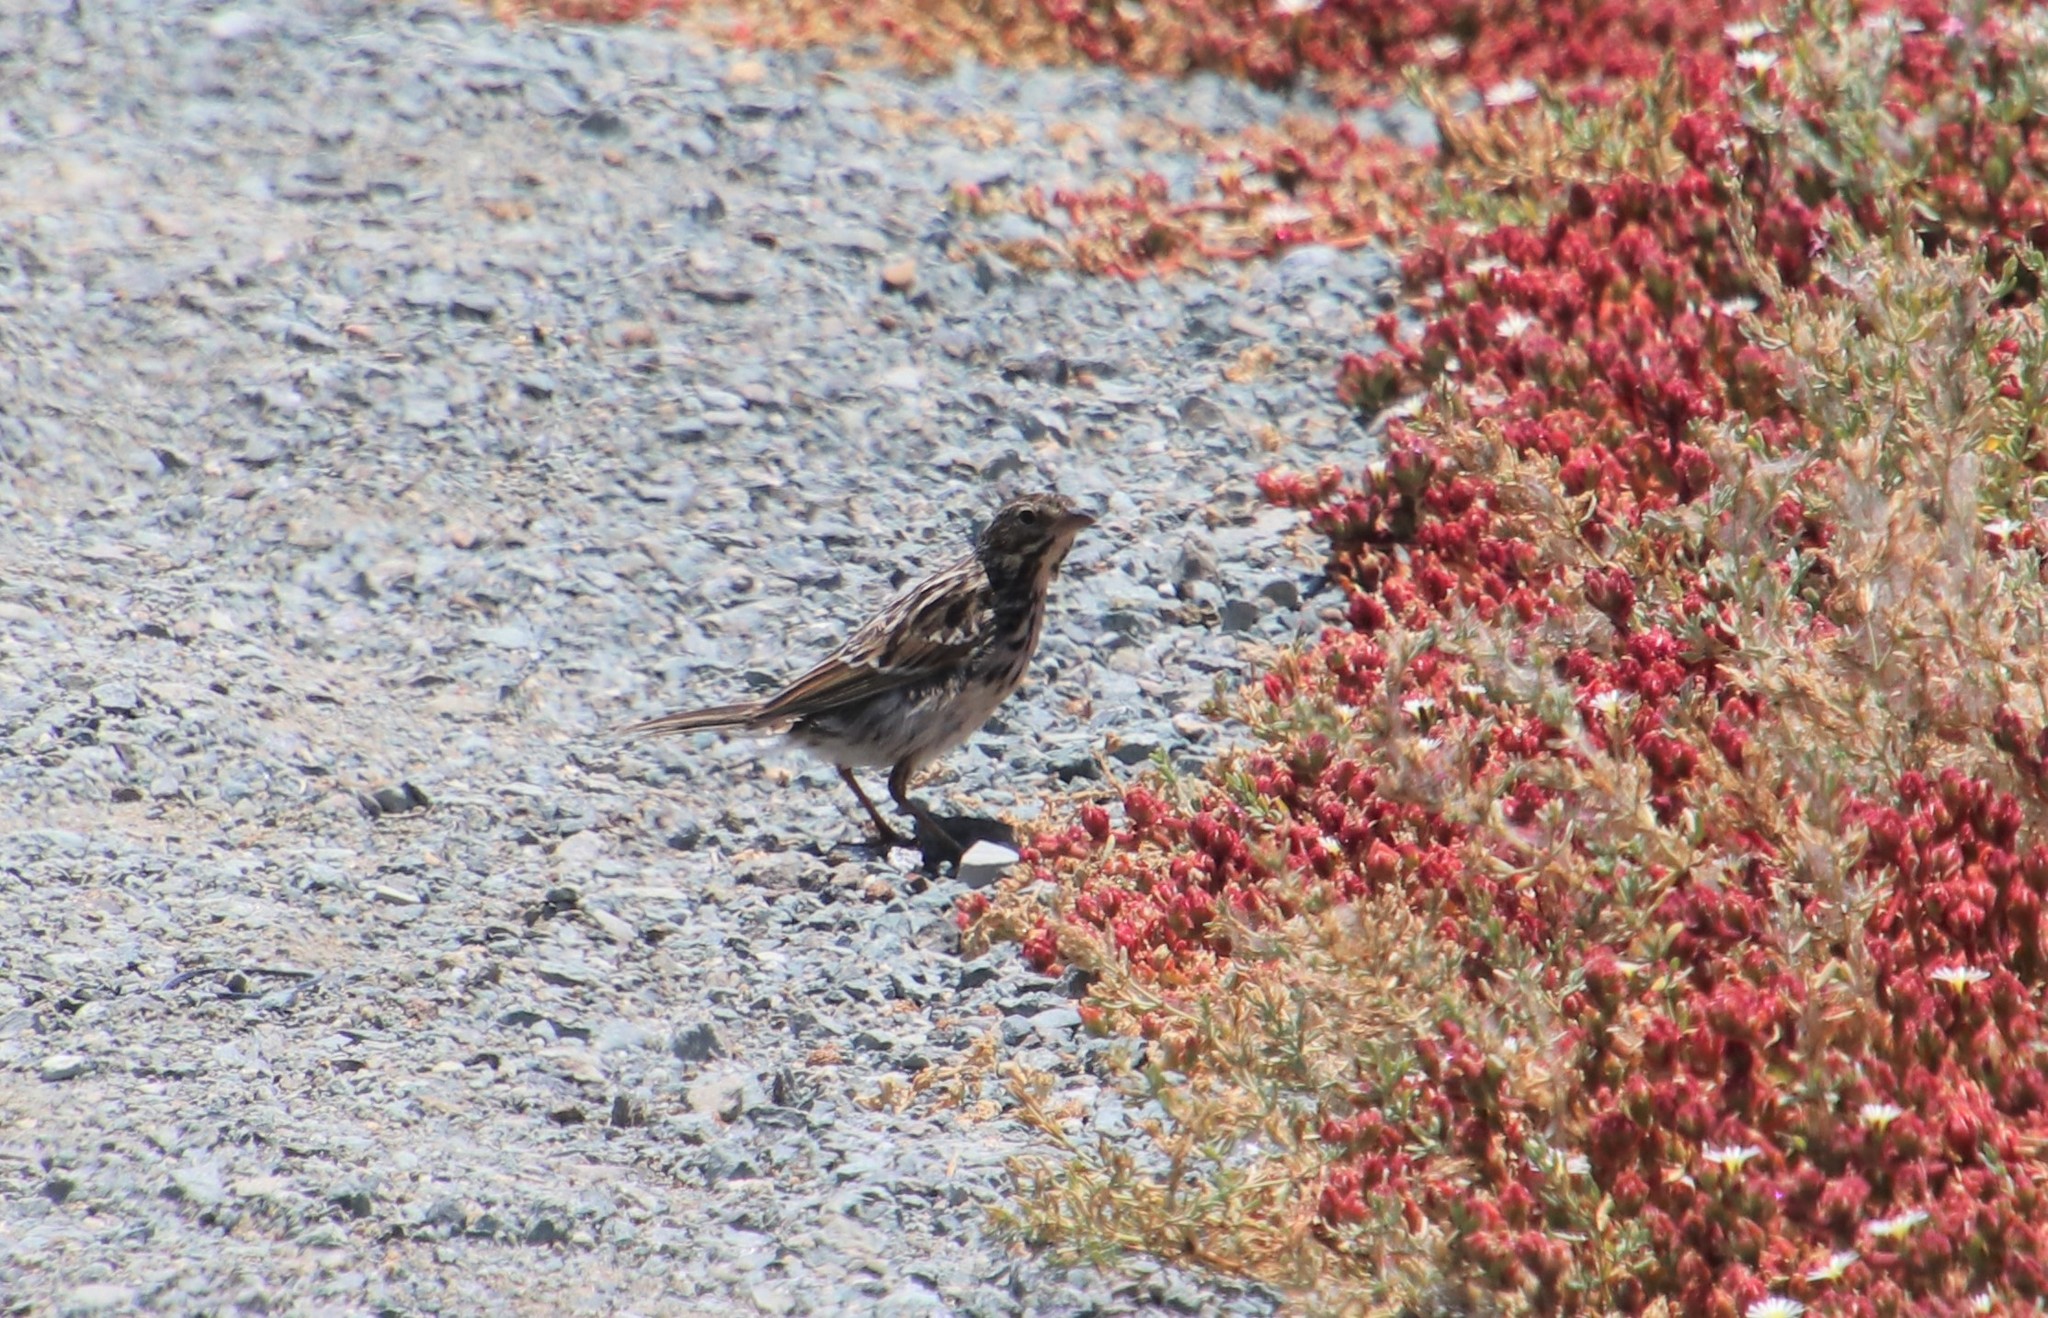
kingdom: Animalia
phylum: Chordata
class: Aves
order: Passeriformes
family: Passerellidae
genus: Passerculus
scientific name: Passerculus sandwichensis
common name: Savannah sparrow
